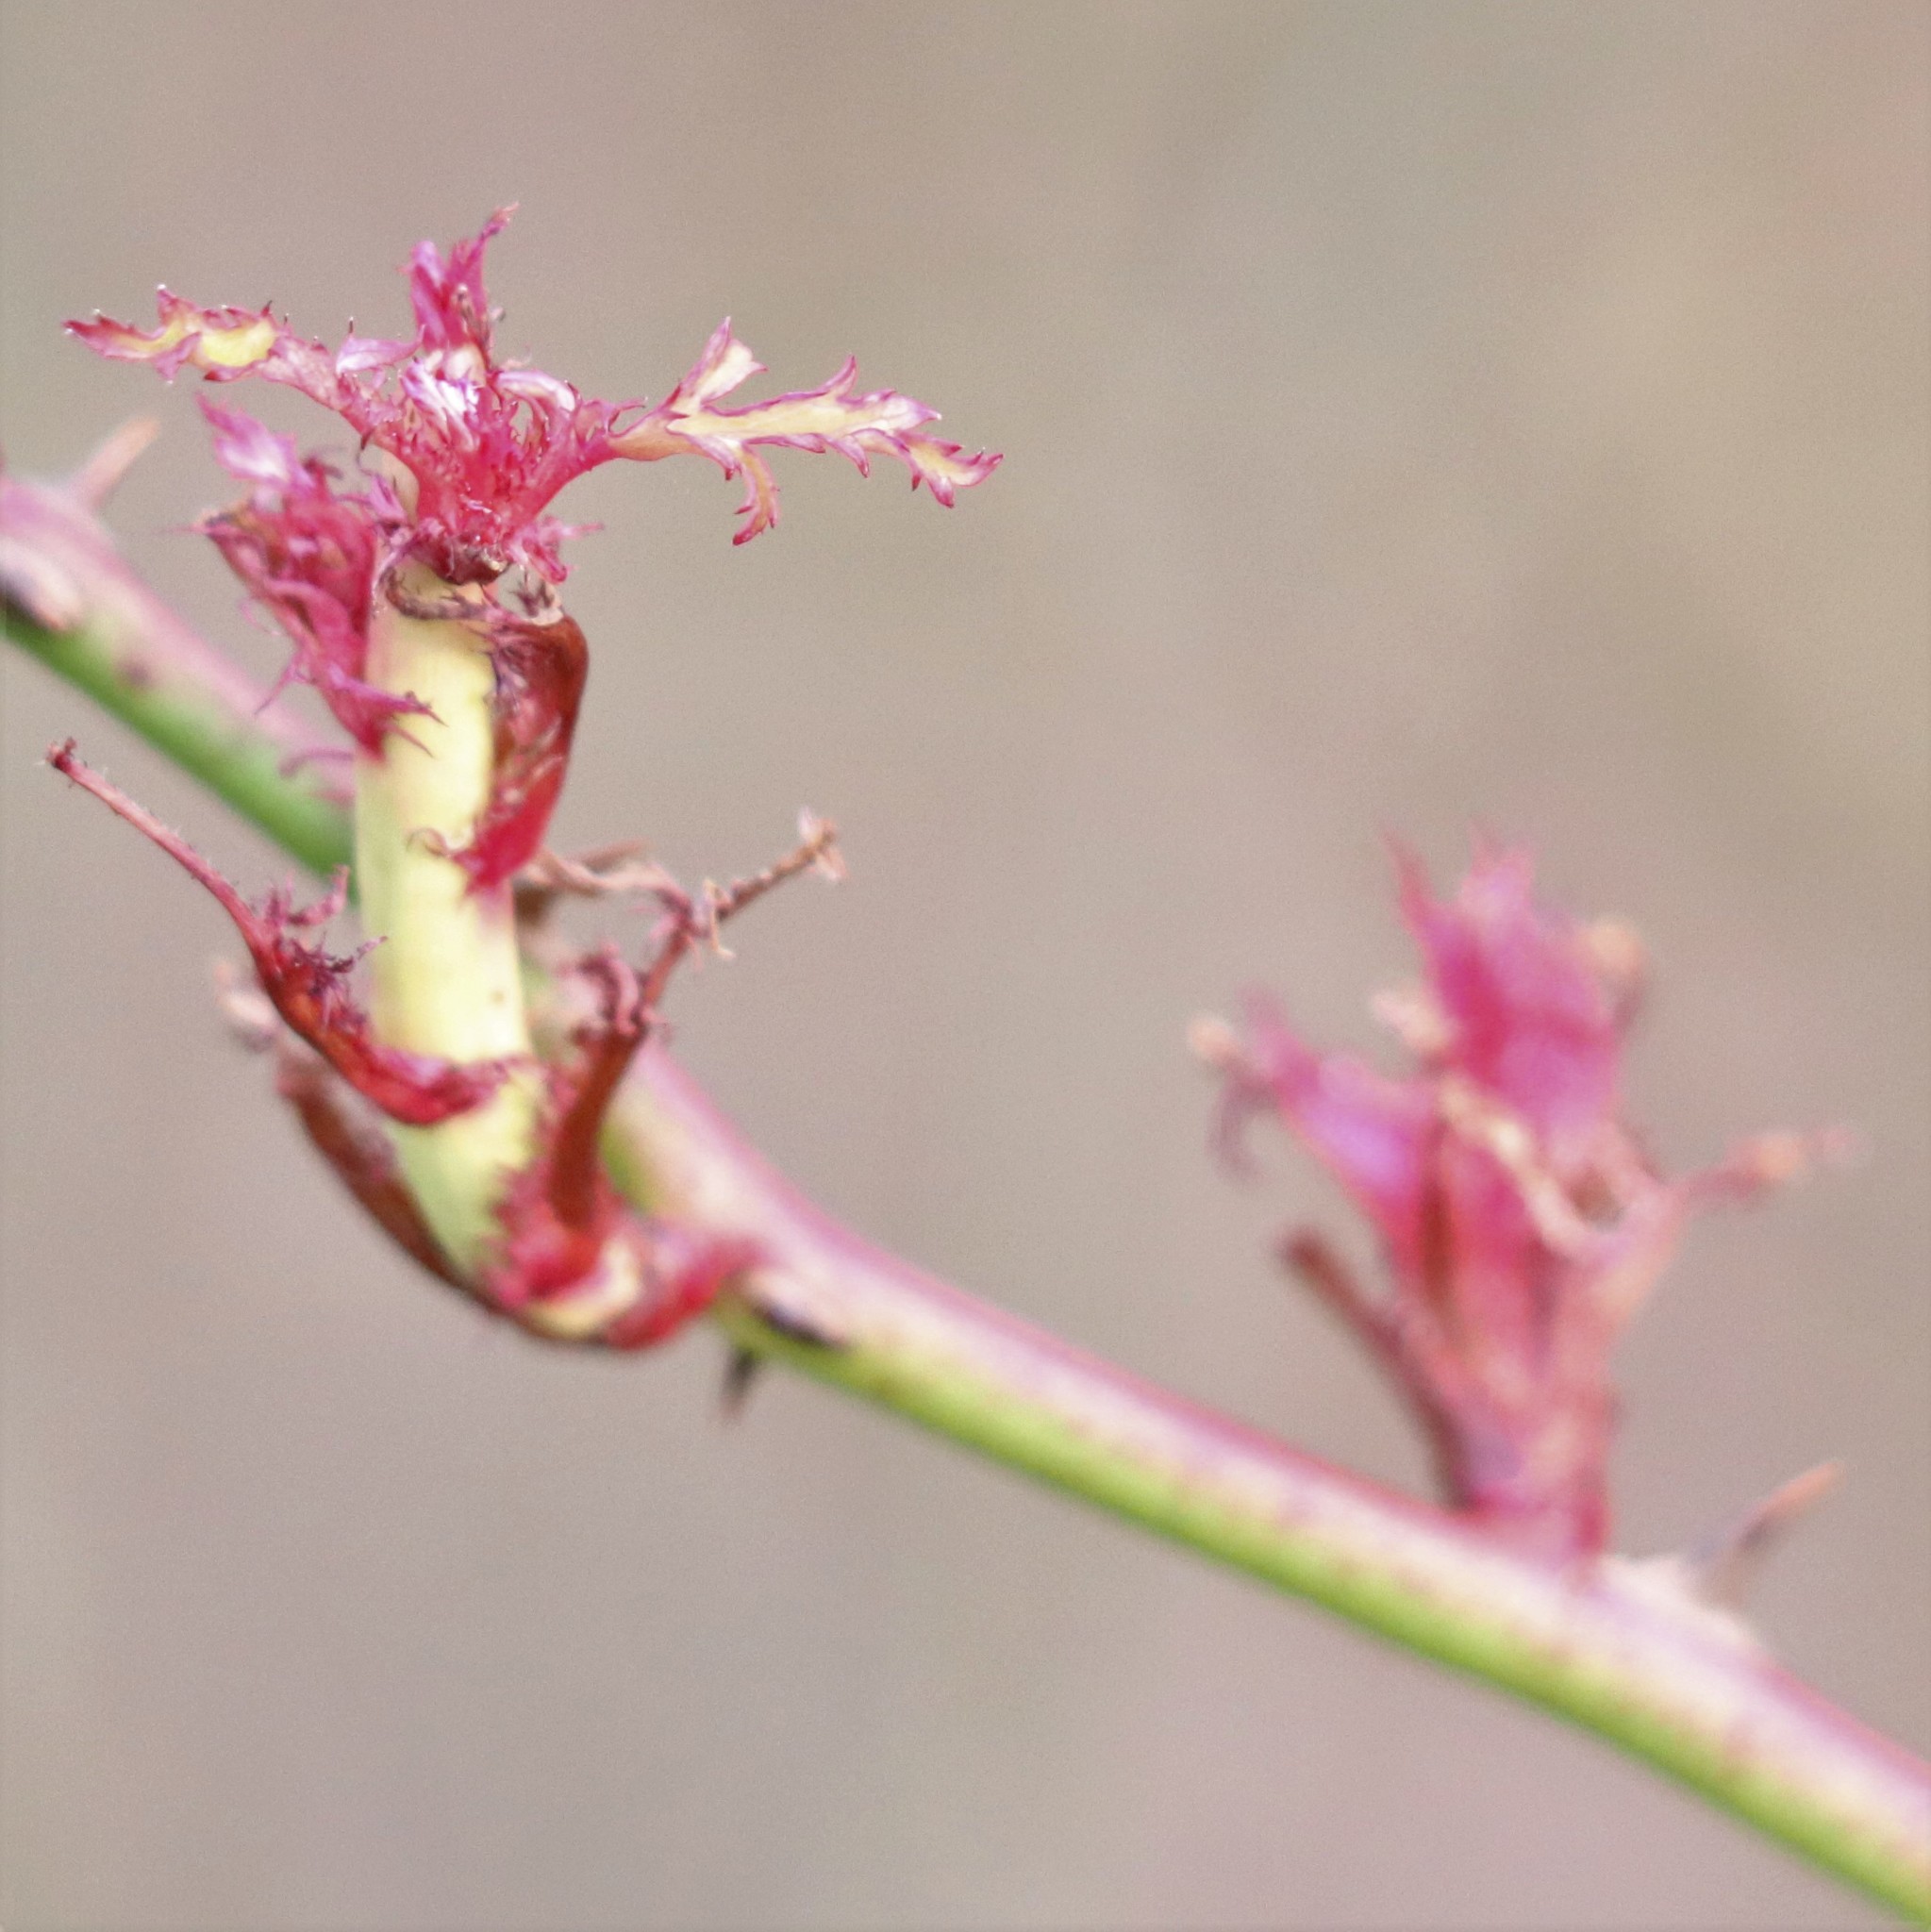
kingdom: Viruses
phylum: Negarnaviricota
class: Ellioviricetes
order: Bunyavirales
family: Fimoviridae
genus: Emaravirus
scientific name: Emaravirus rosae
